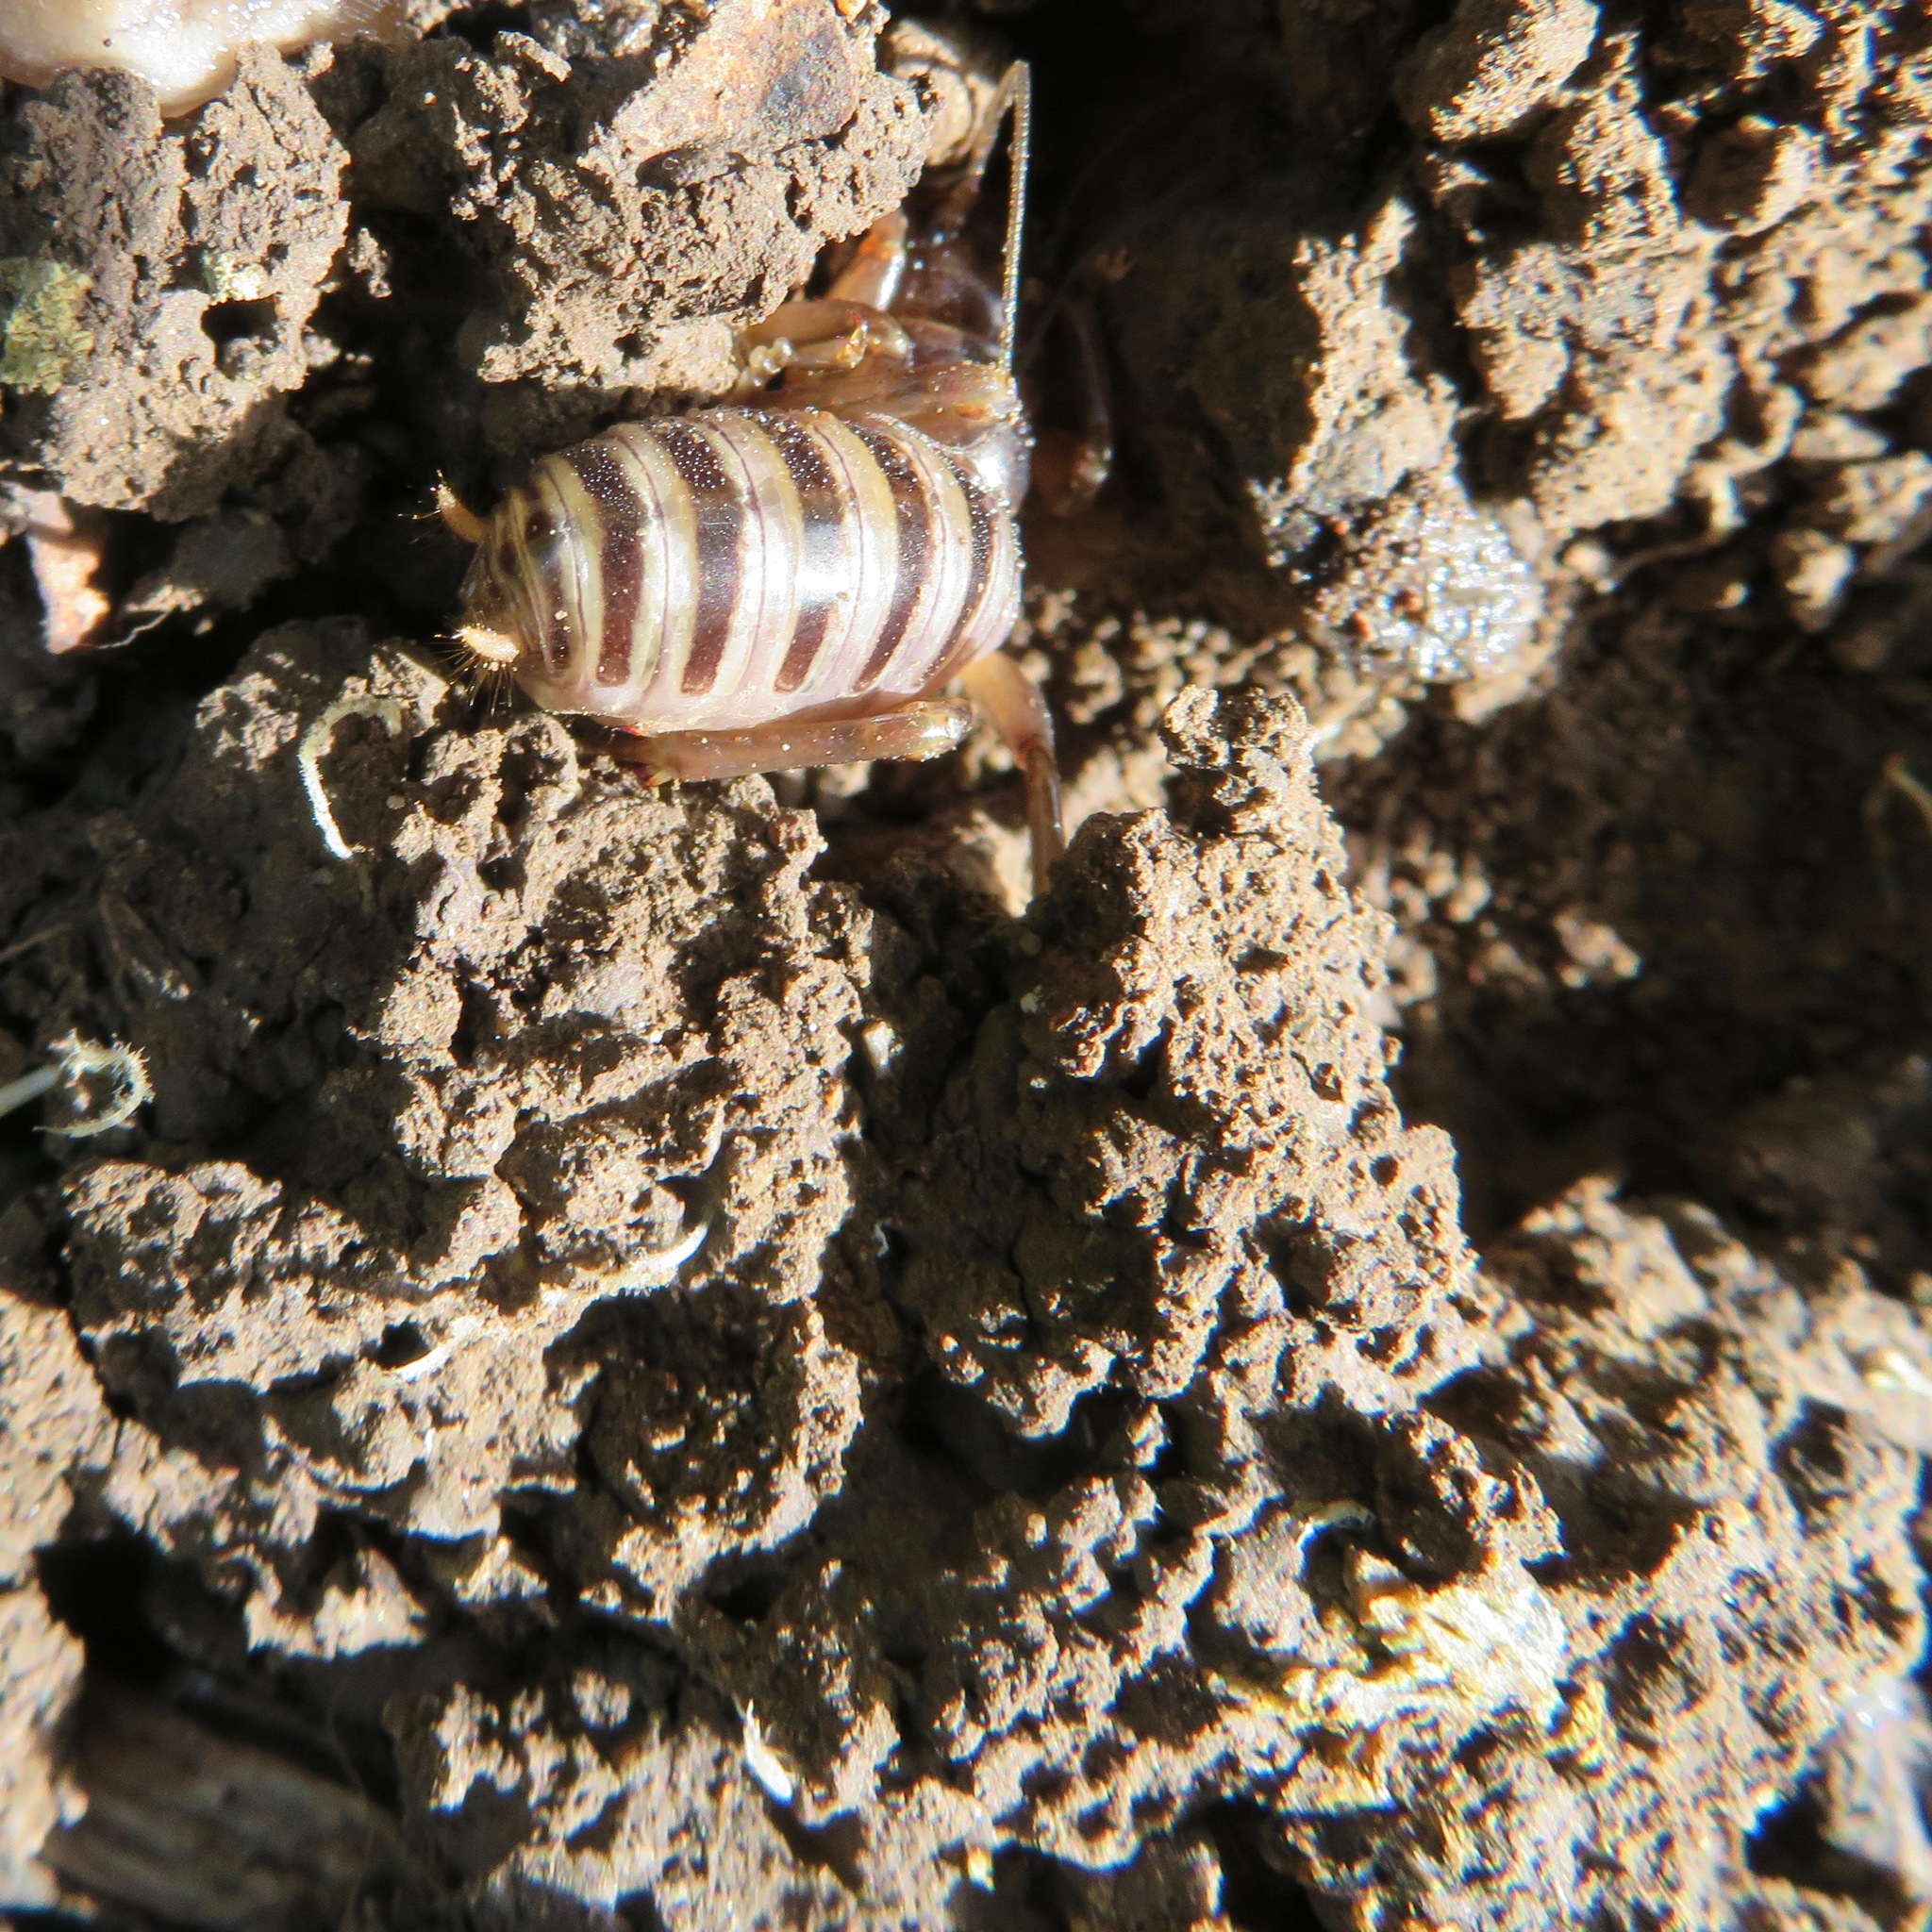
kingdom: Animalia
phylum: Arthropoda
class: Insecta
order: Orthoptera
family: Stenopelmatidae
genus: Ammopelmatus
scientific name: Ammopelmatus
